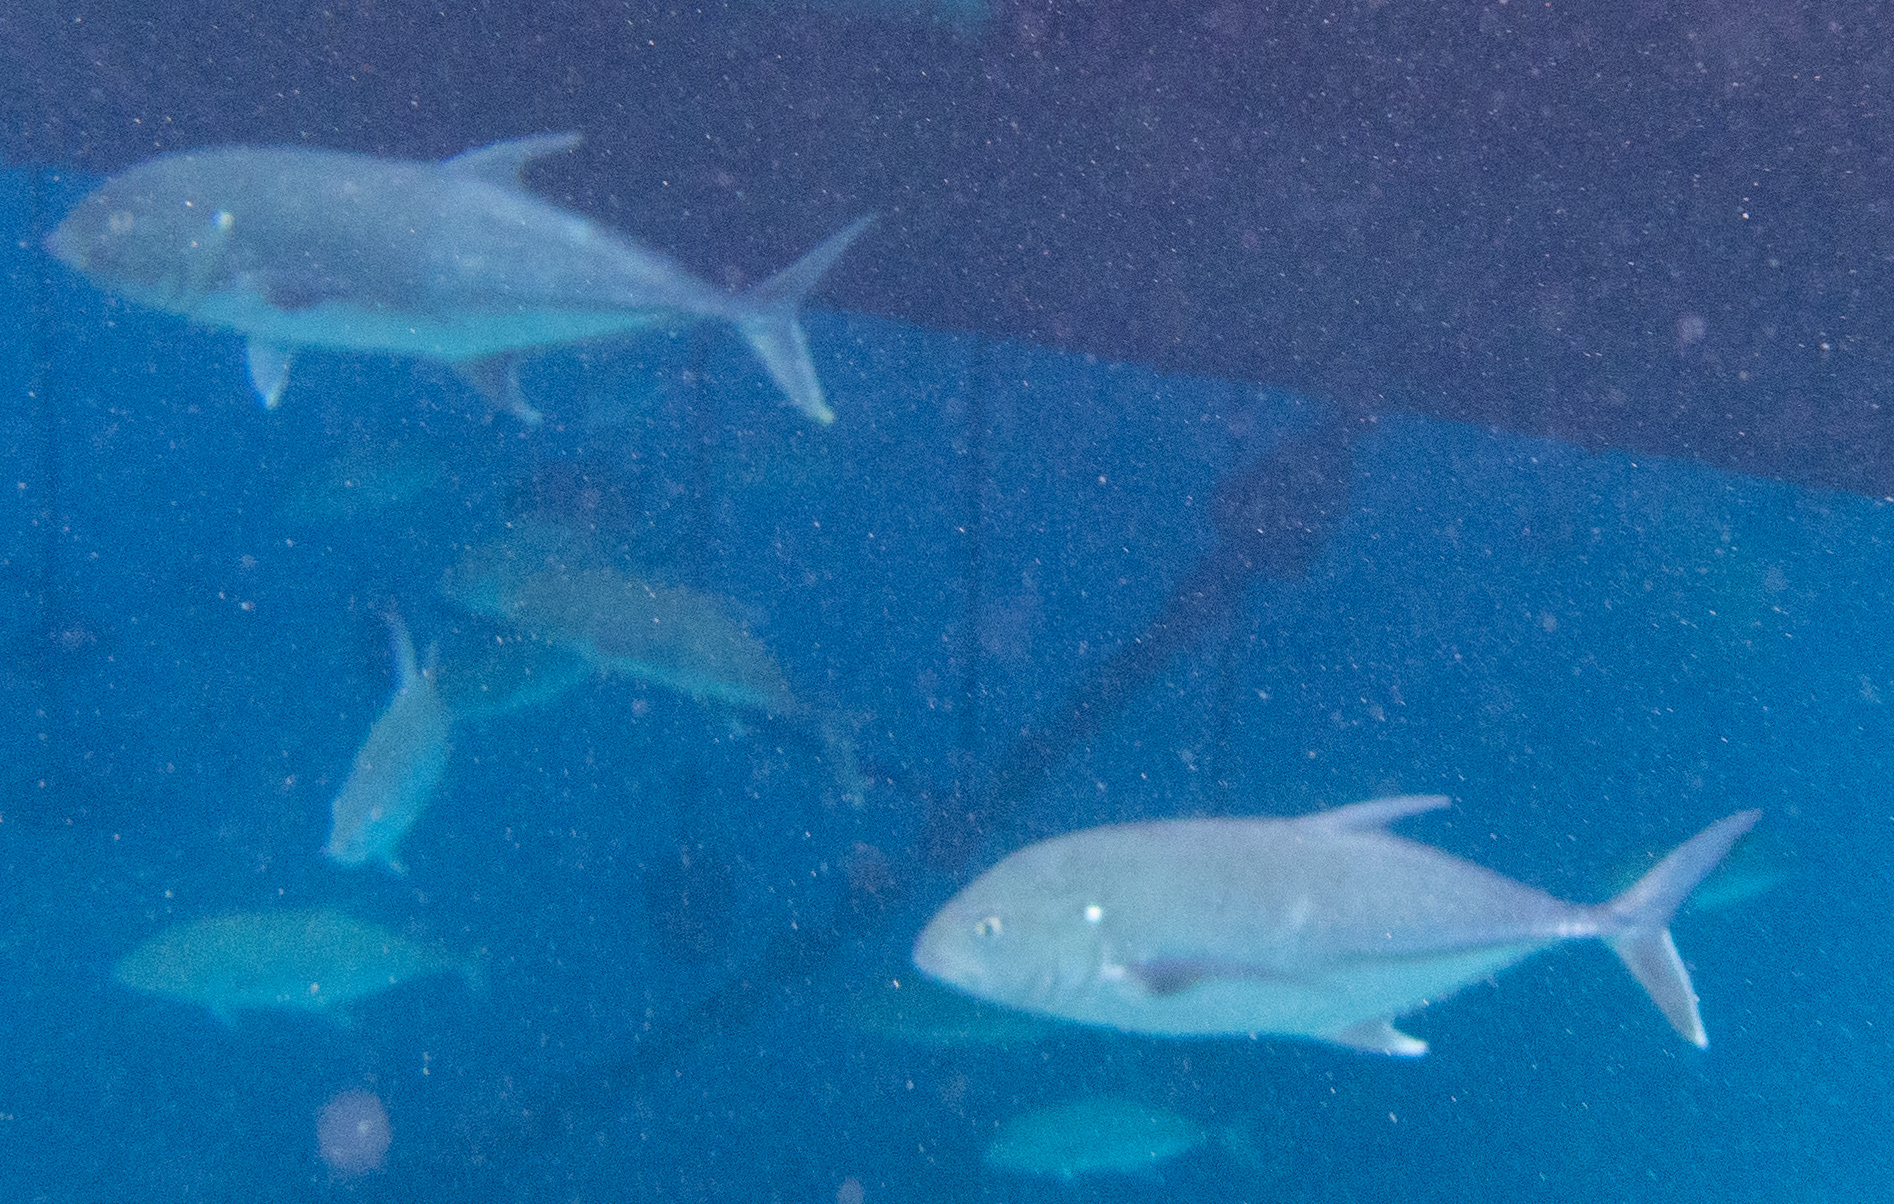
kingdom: Animalia
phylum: Chordata
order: Perciformes
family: Carangidae
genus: Caranx
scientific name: Caranx papuensis
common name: Brassy trevally
